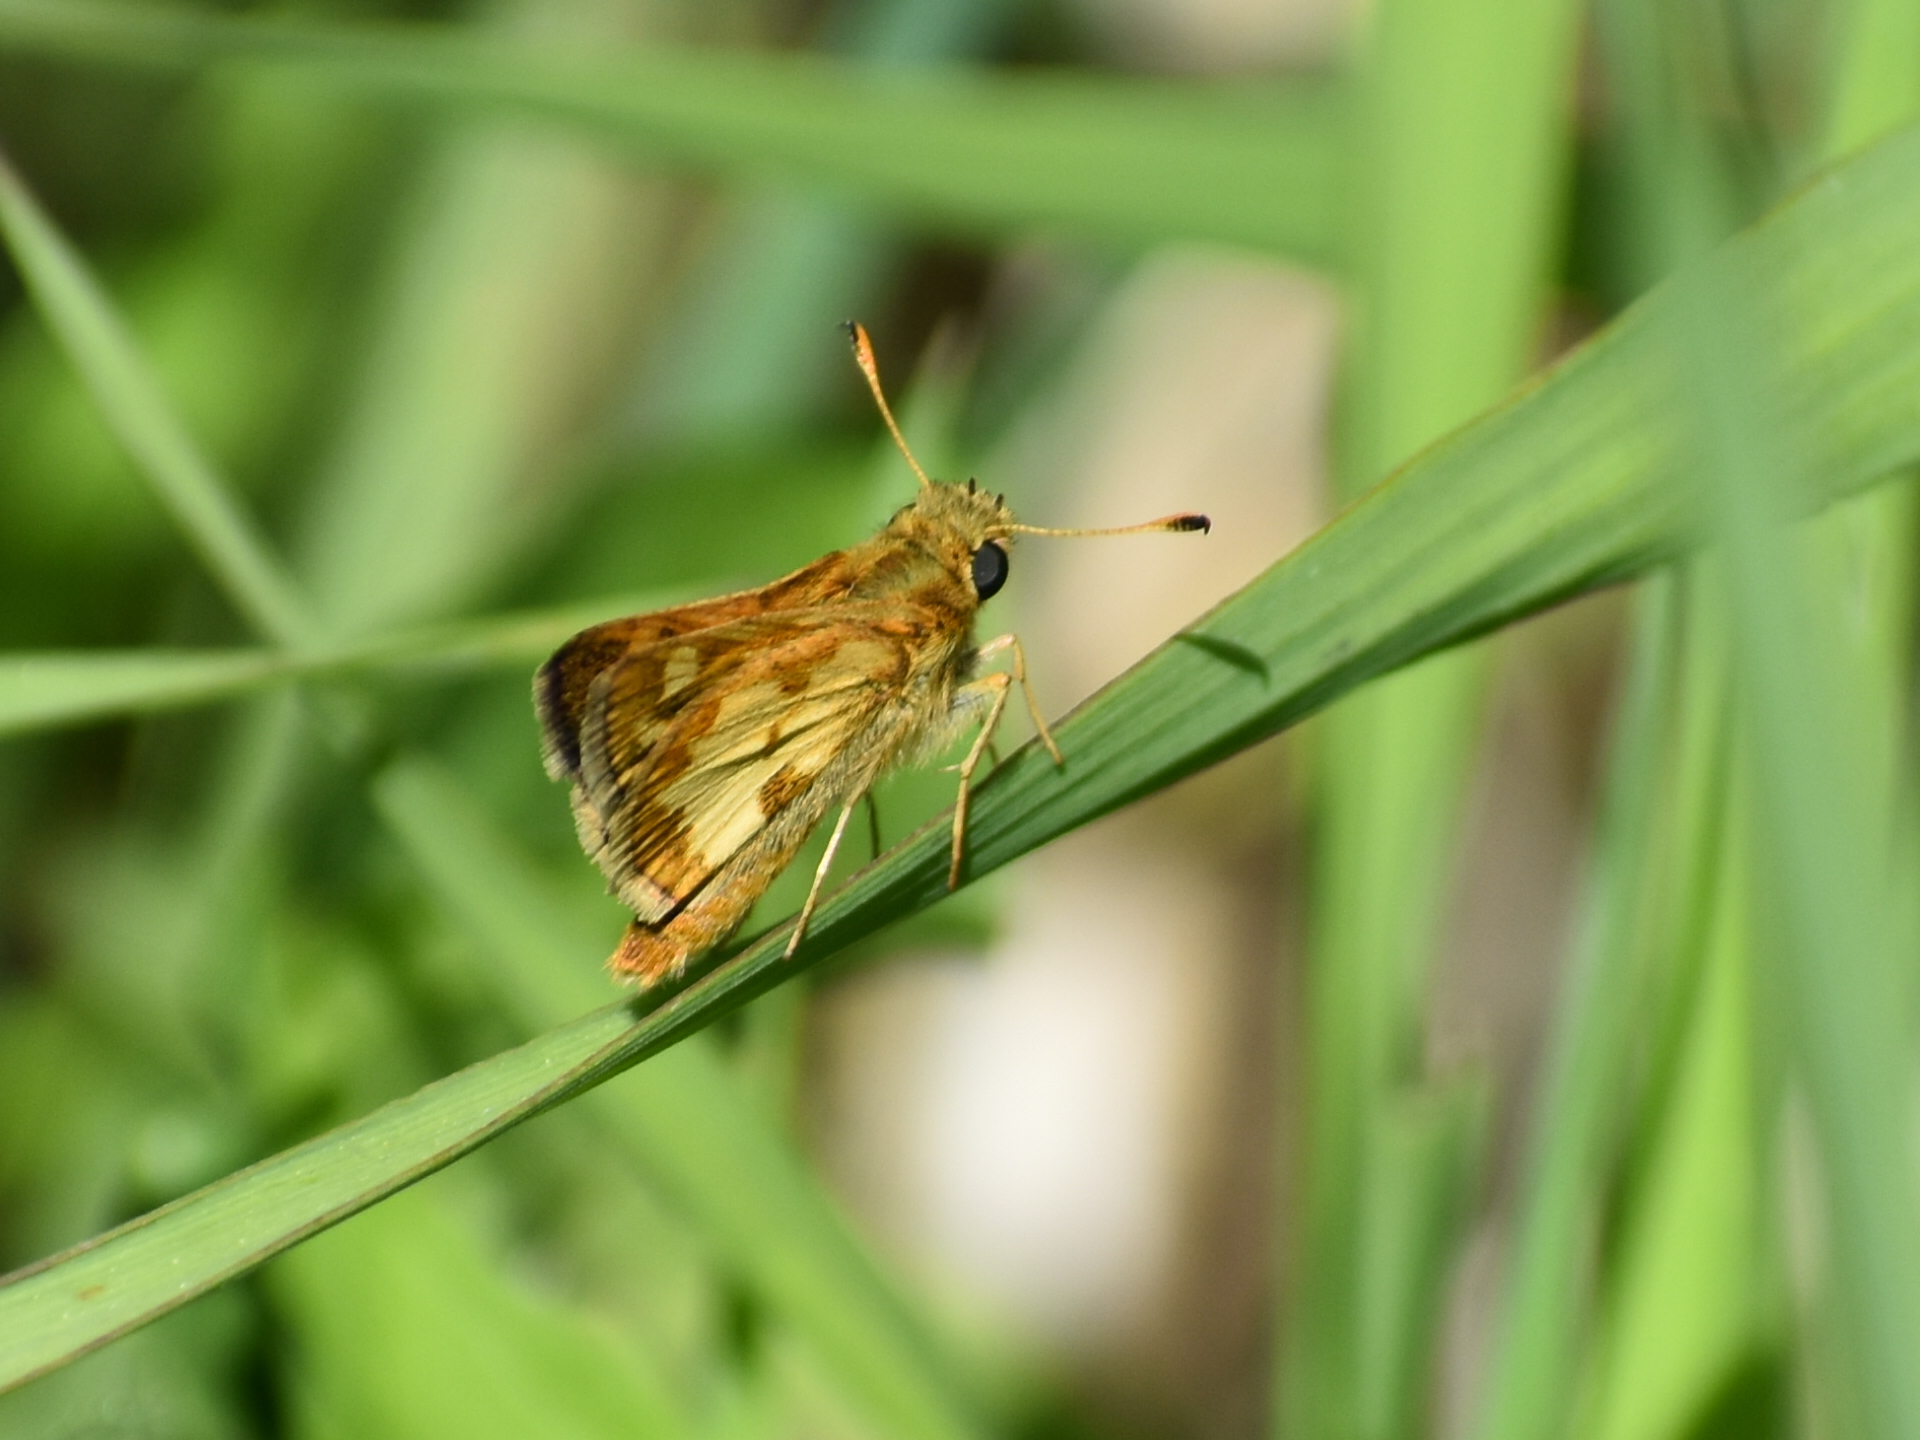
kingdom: Animalia
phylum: Arthropoda
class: Insecta
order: Lepidoptera
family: Hesperiidae
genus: Polites
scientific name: Polites coras
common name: Peck's skipper
